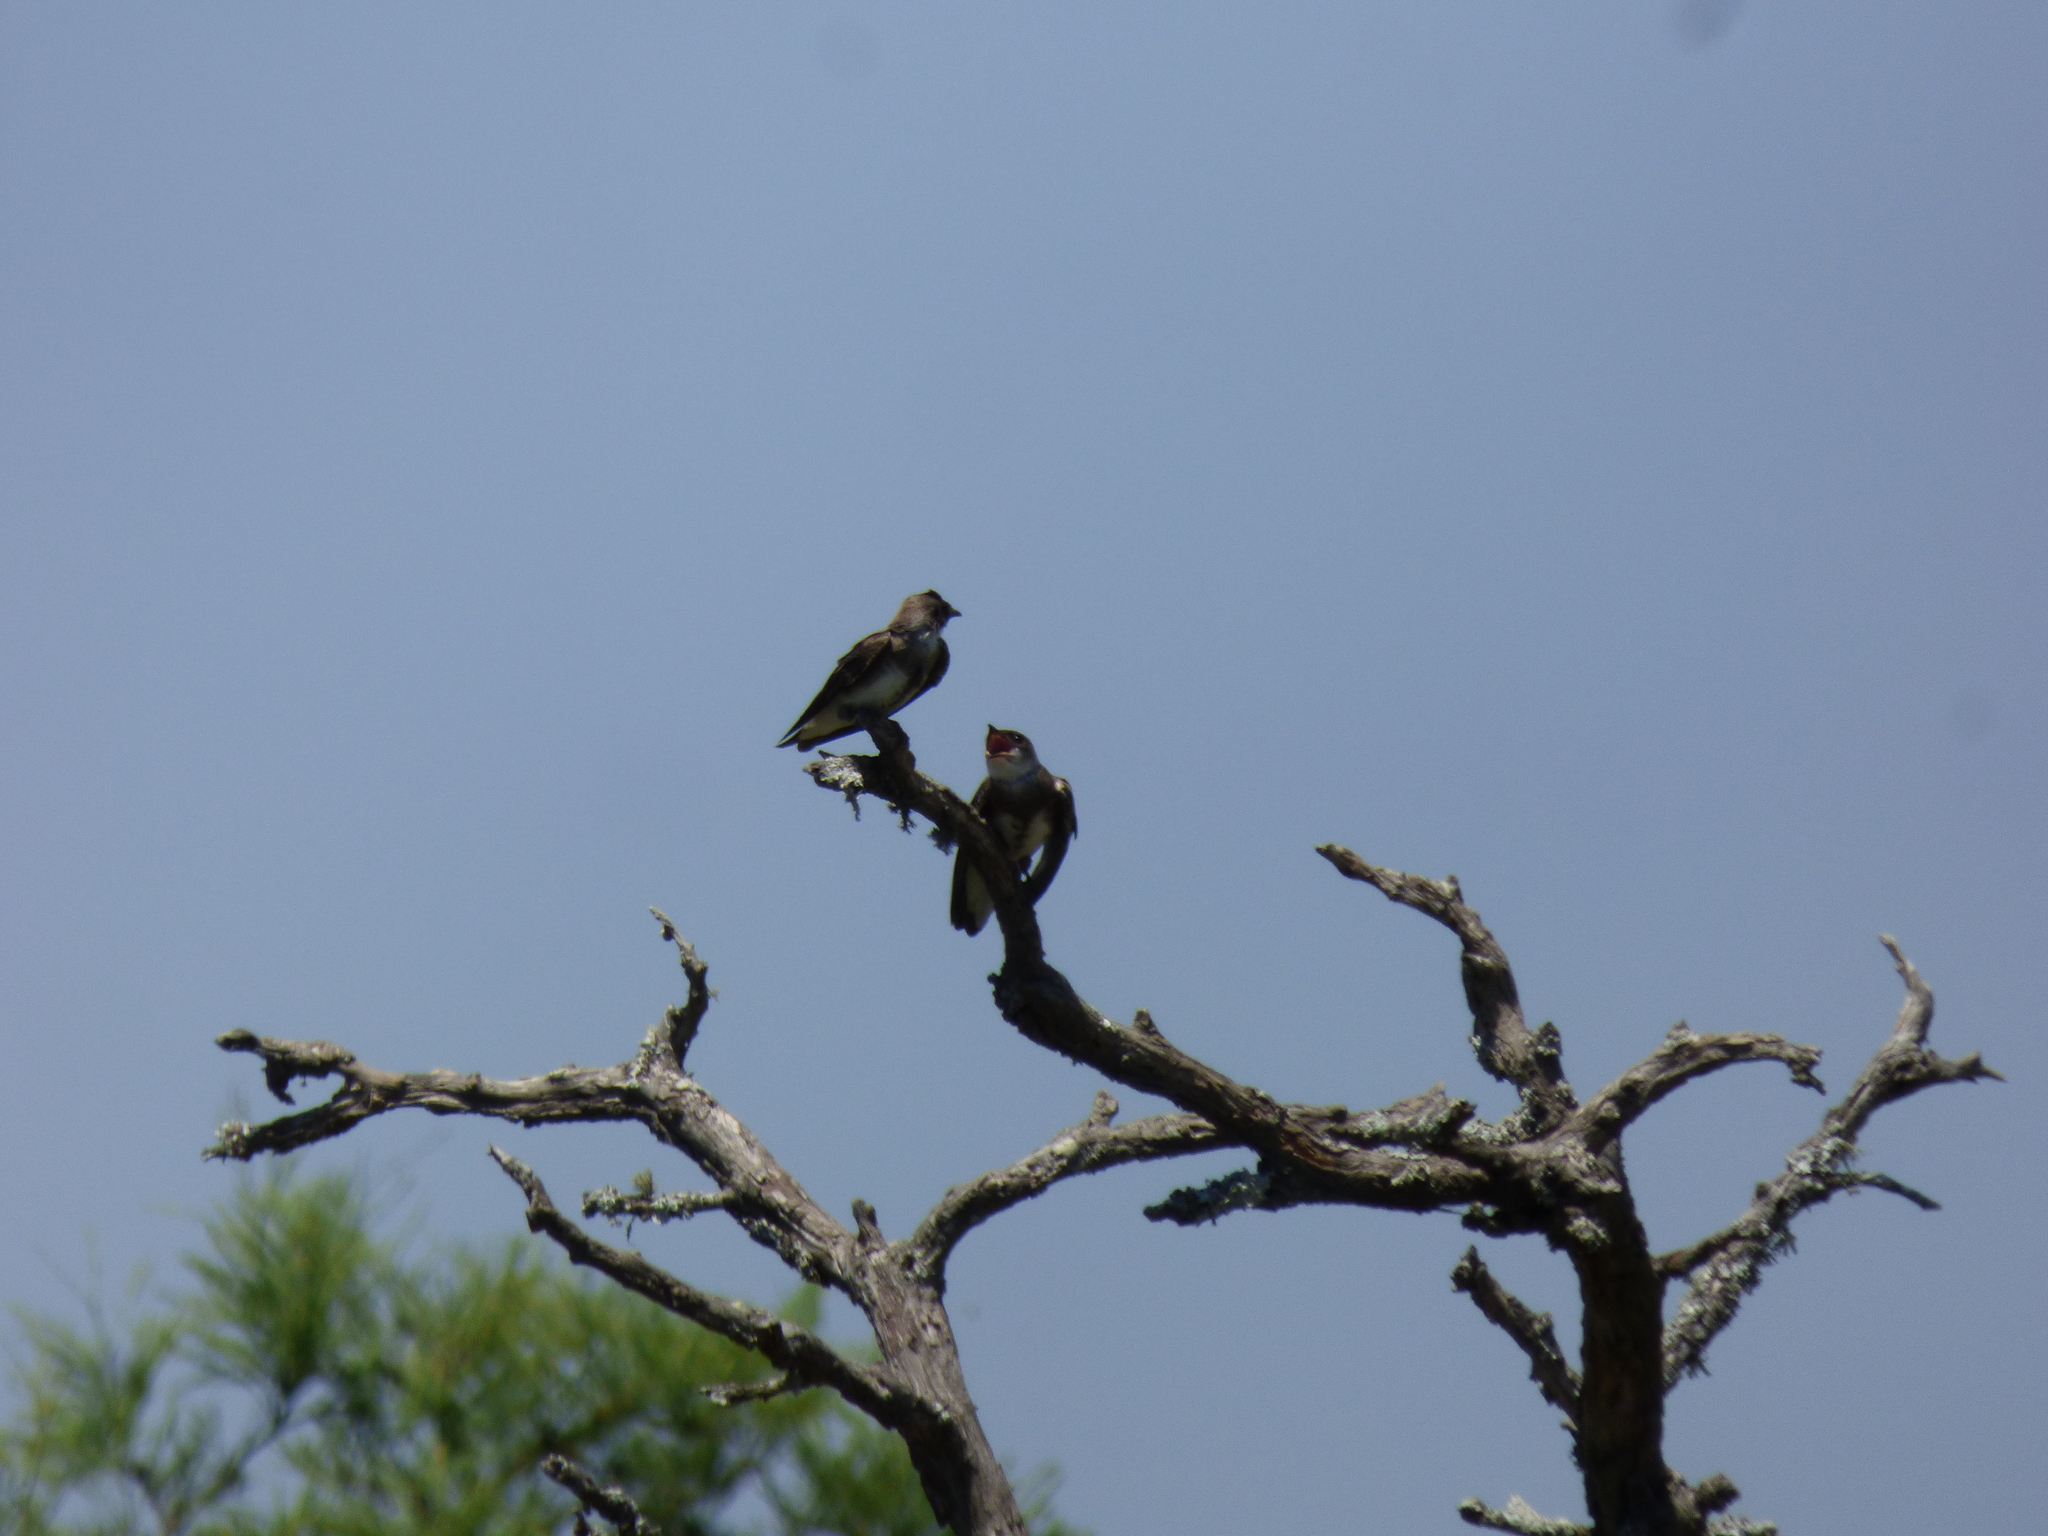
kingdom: Animalia
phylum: Chordata
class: Aves
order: Passeriformes
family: Hirundinidae
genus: Progne
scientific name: Progne tapera
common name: Brown-chested martin
